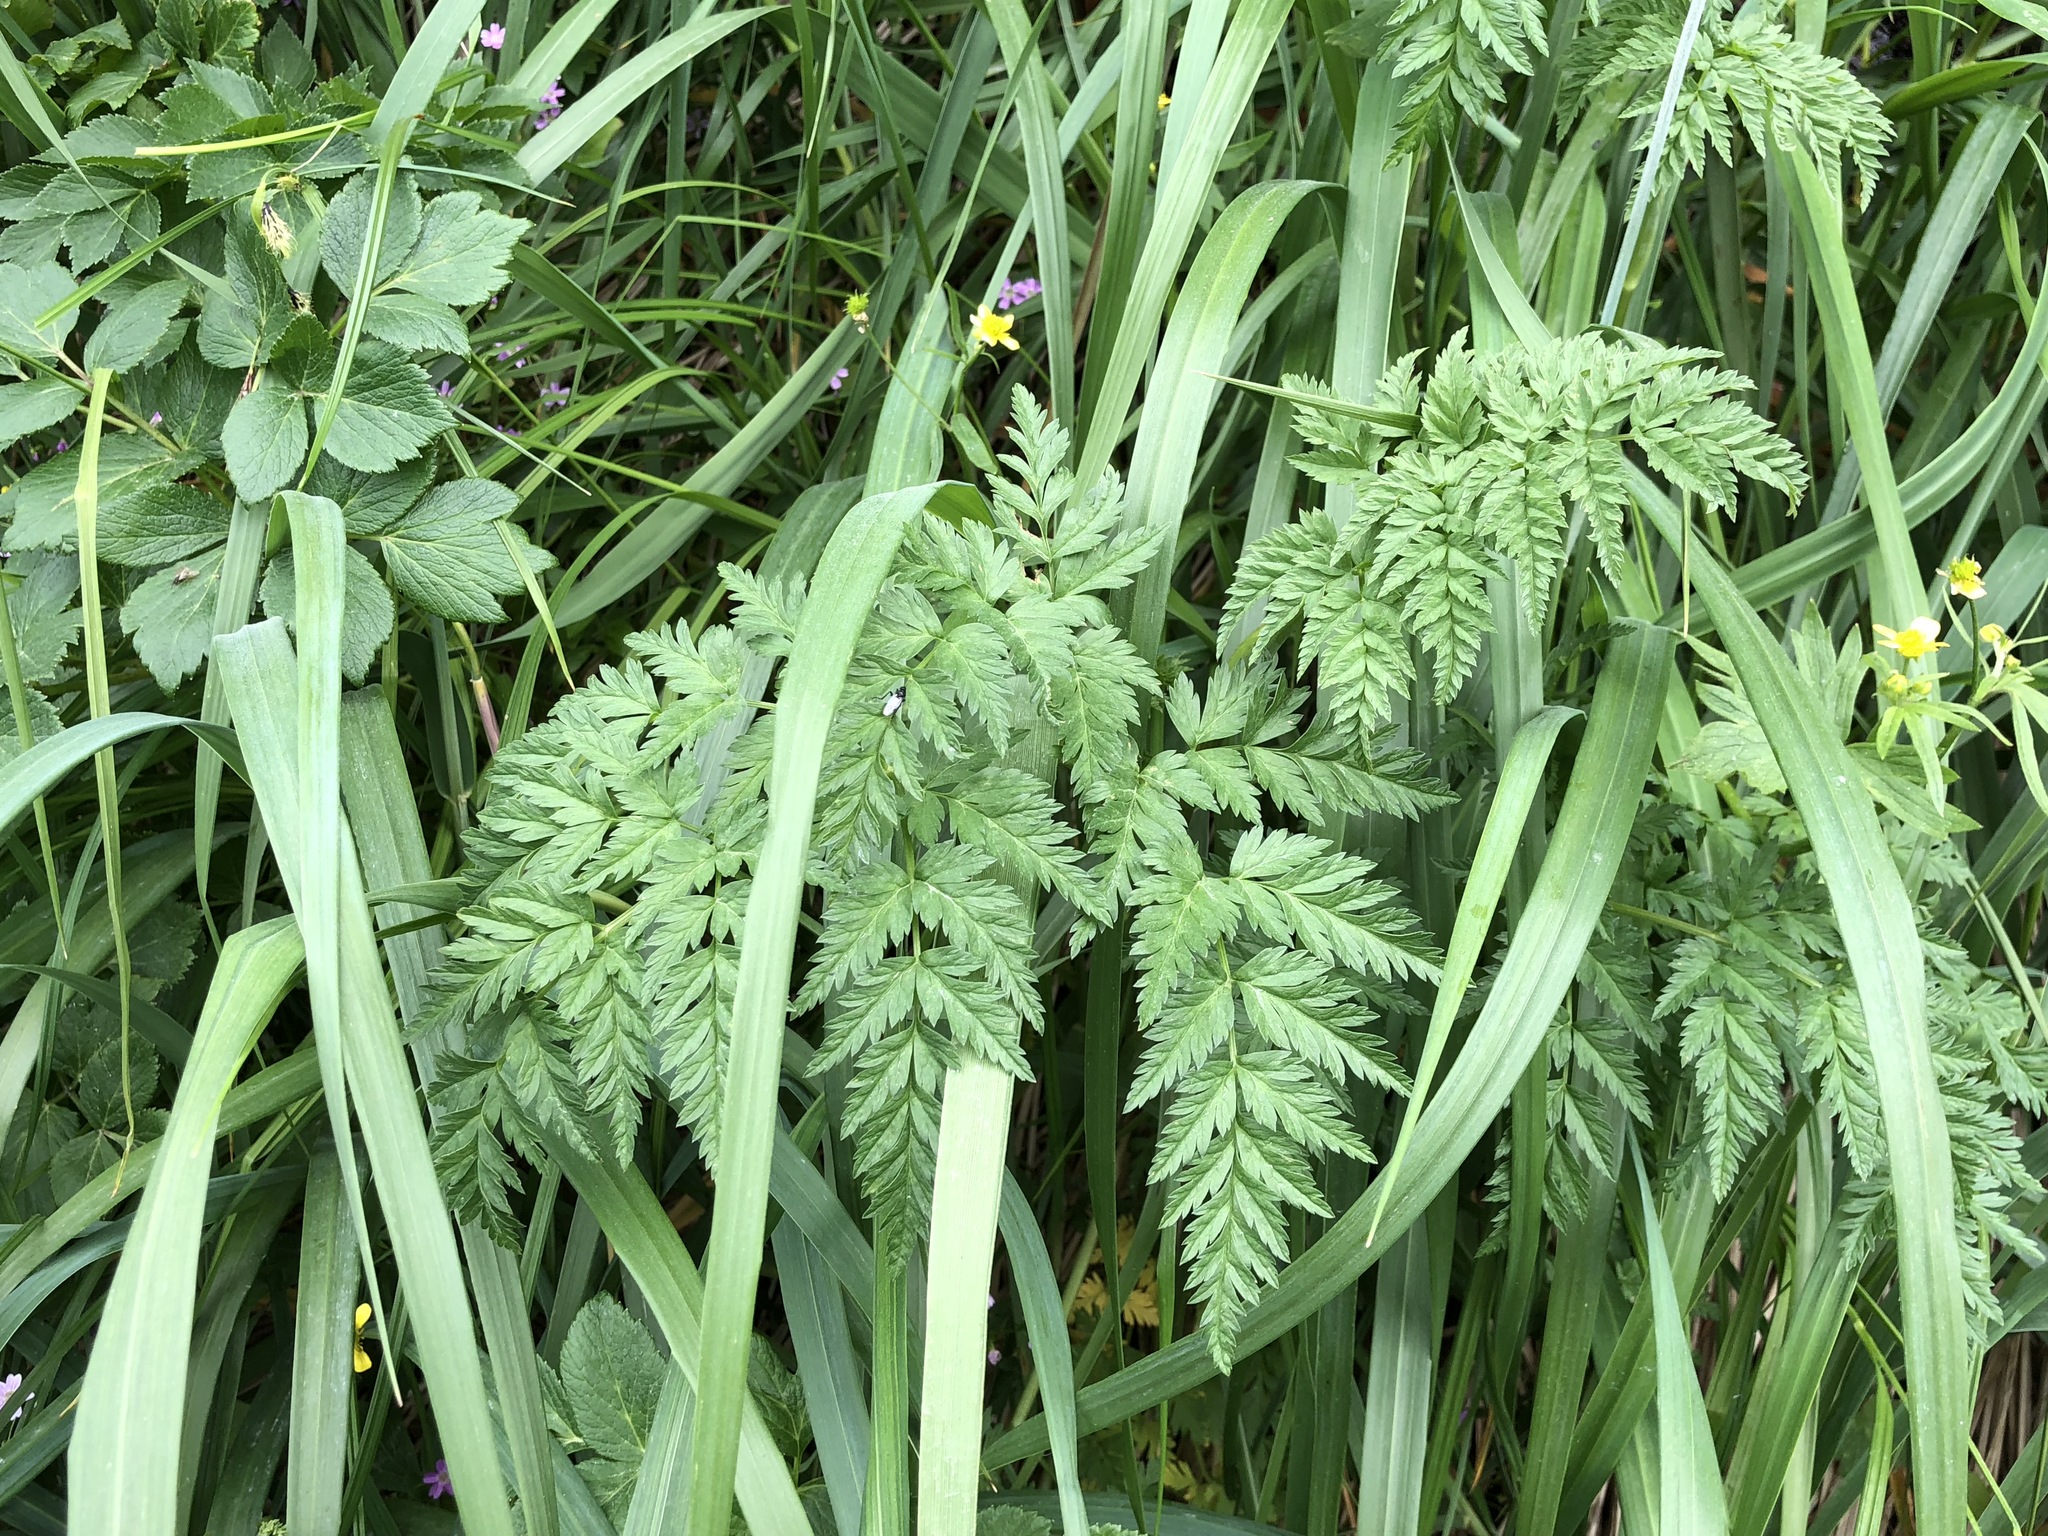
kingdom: Plantae
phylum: Tracheophyta
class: Magnoliopsida
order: Apiales
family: Apiaceae
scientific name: Apiaceae
